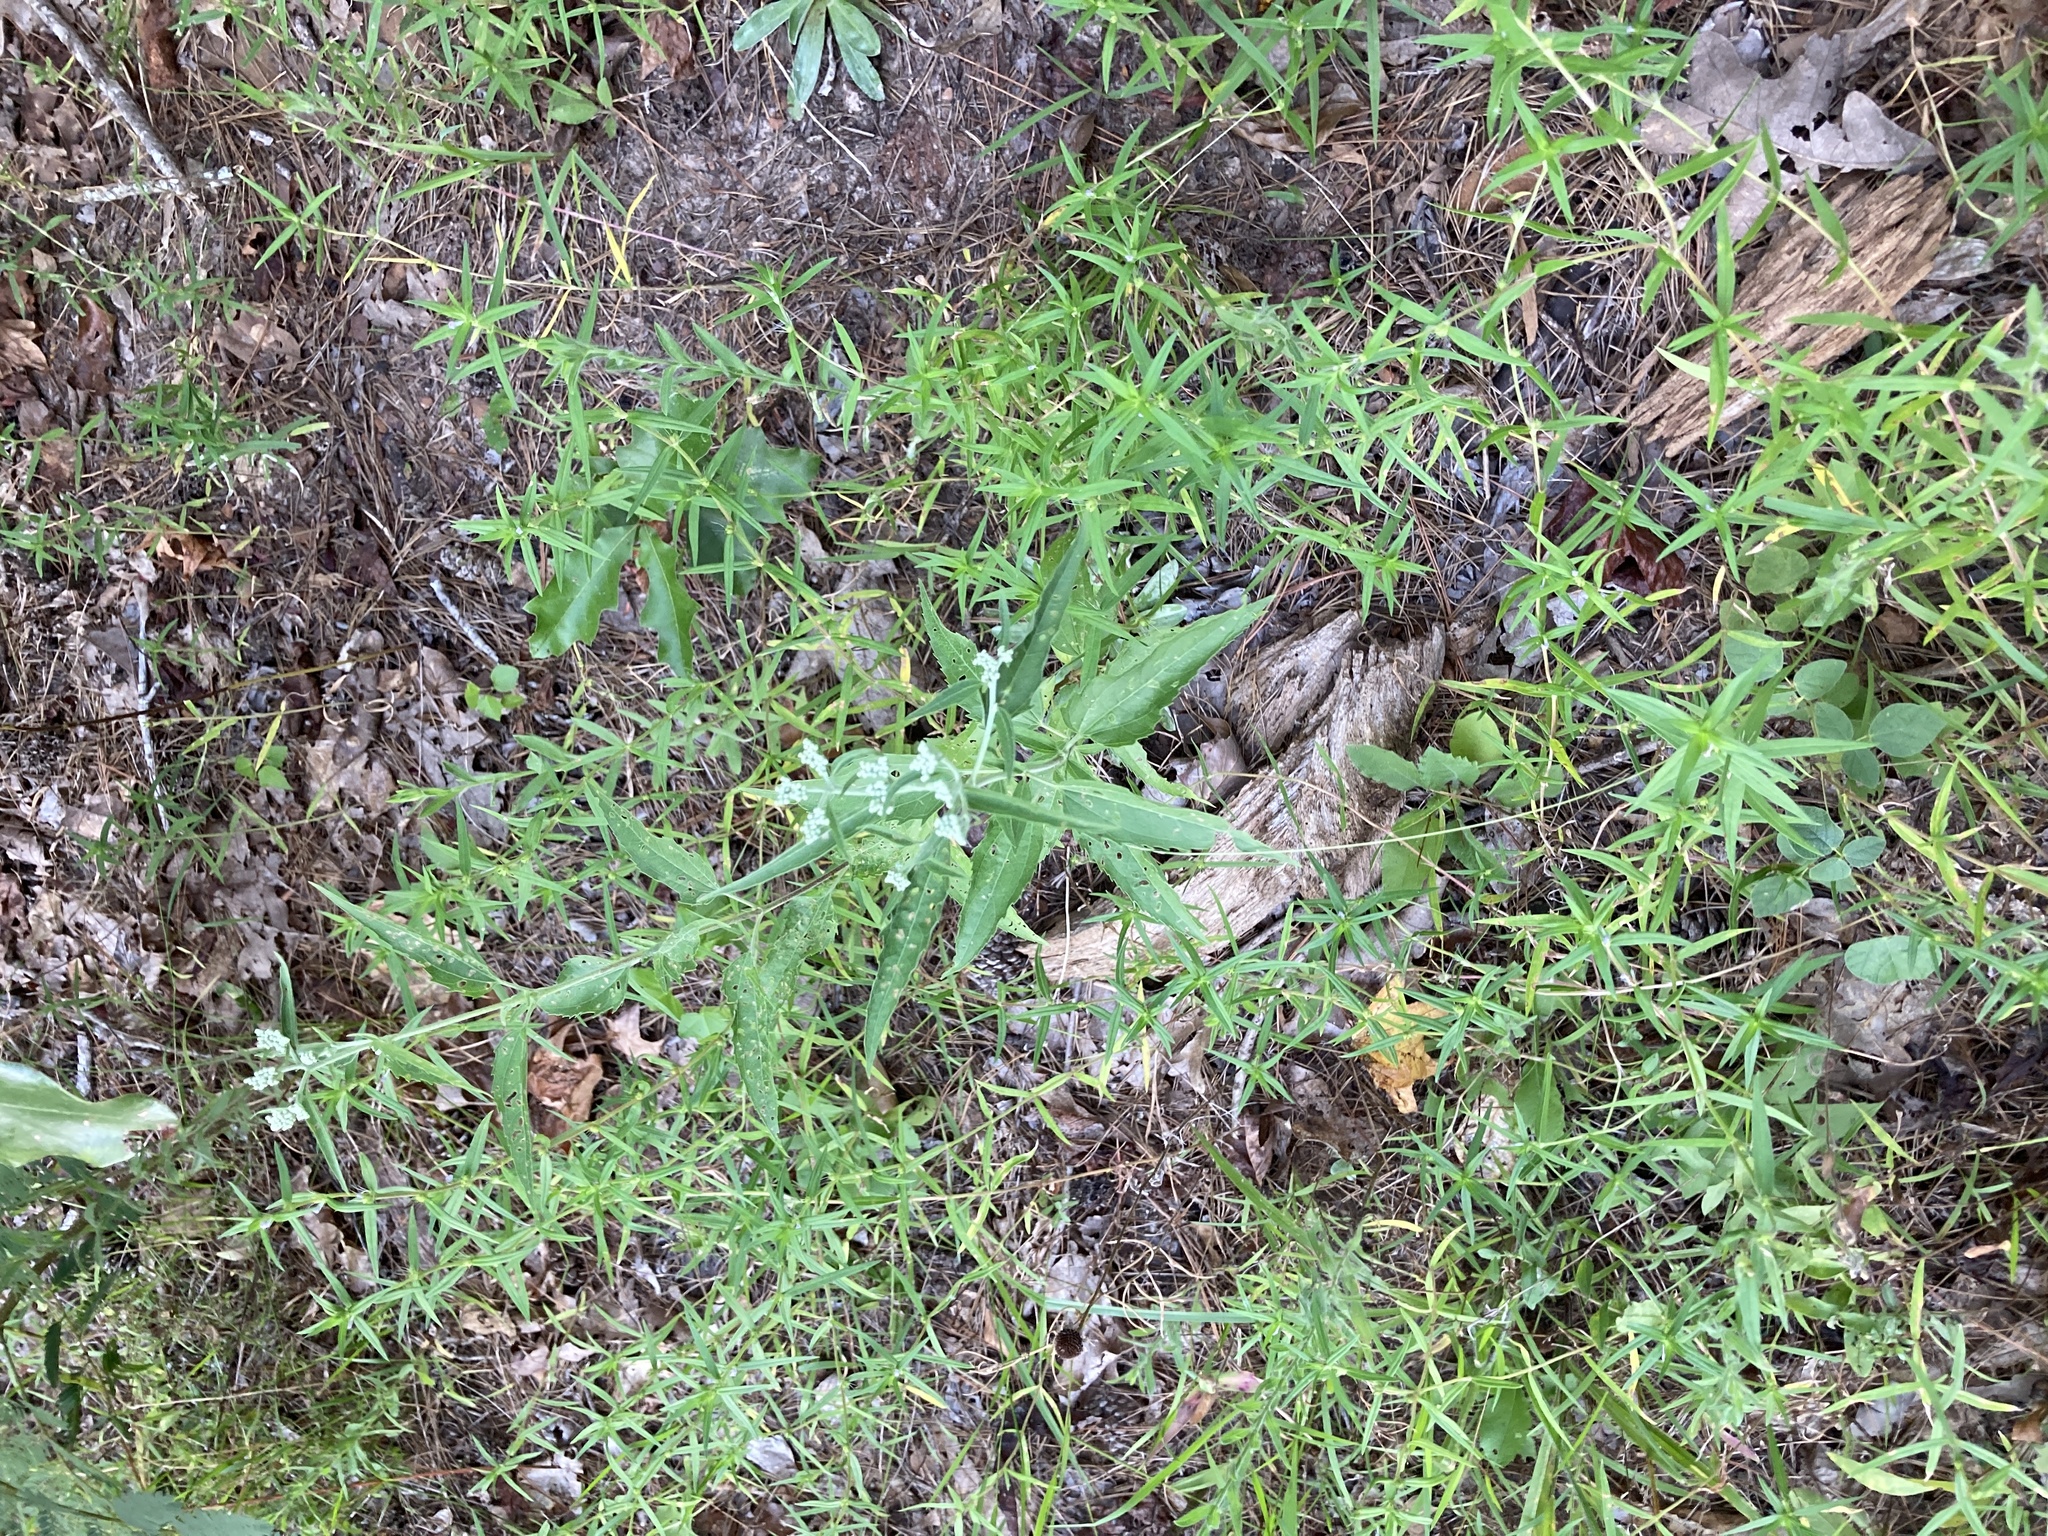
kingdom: Plantae
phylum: Tracheophyta
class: Magnoliopsida
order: Asterales
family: Asteraceae
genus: Eupatorium
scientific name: Eupatorium serotinum
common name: Late boneset
